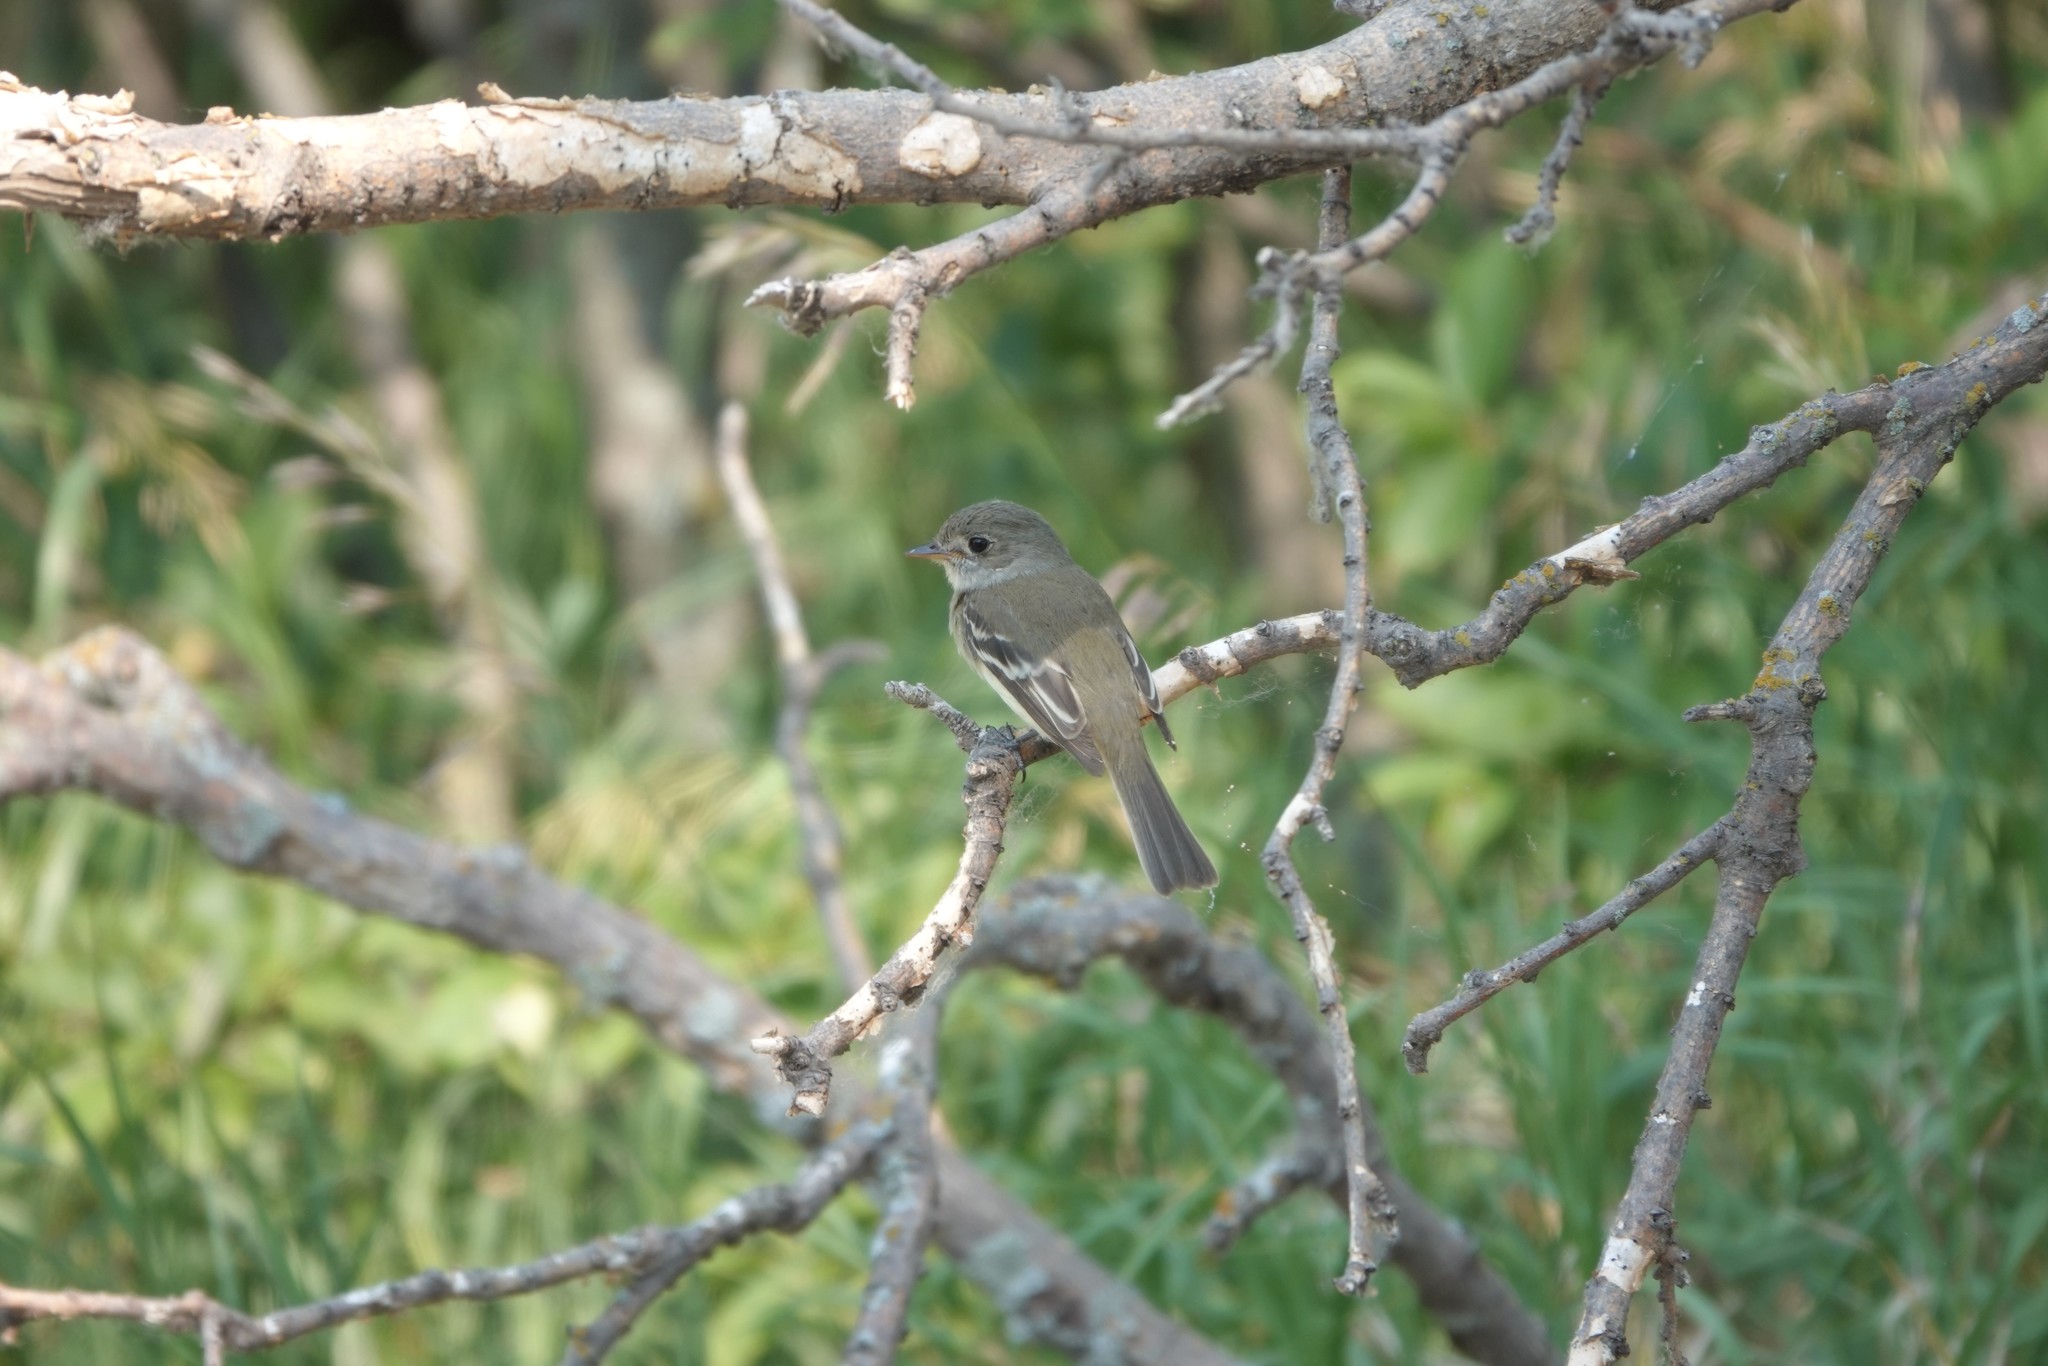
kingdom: Animalia
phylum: Chordata
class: Aves
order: Passeriformes
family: Tyrannidae
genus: Empidonax
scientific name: Empidonax minimus
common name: Least flycatcher
